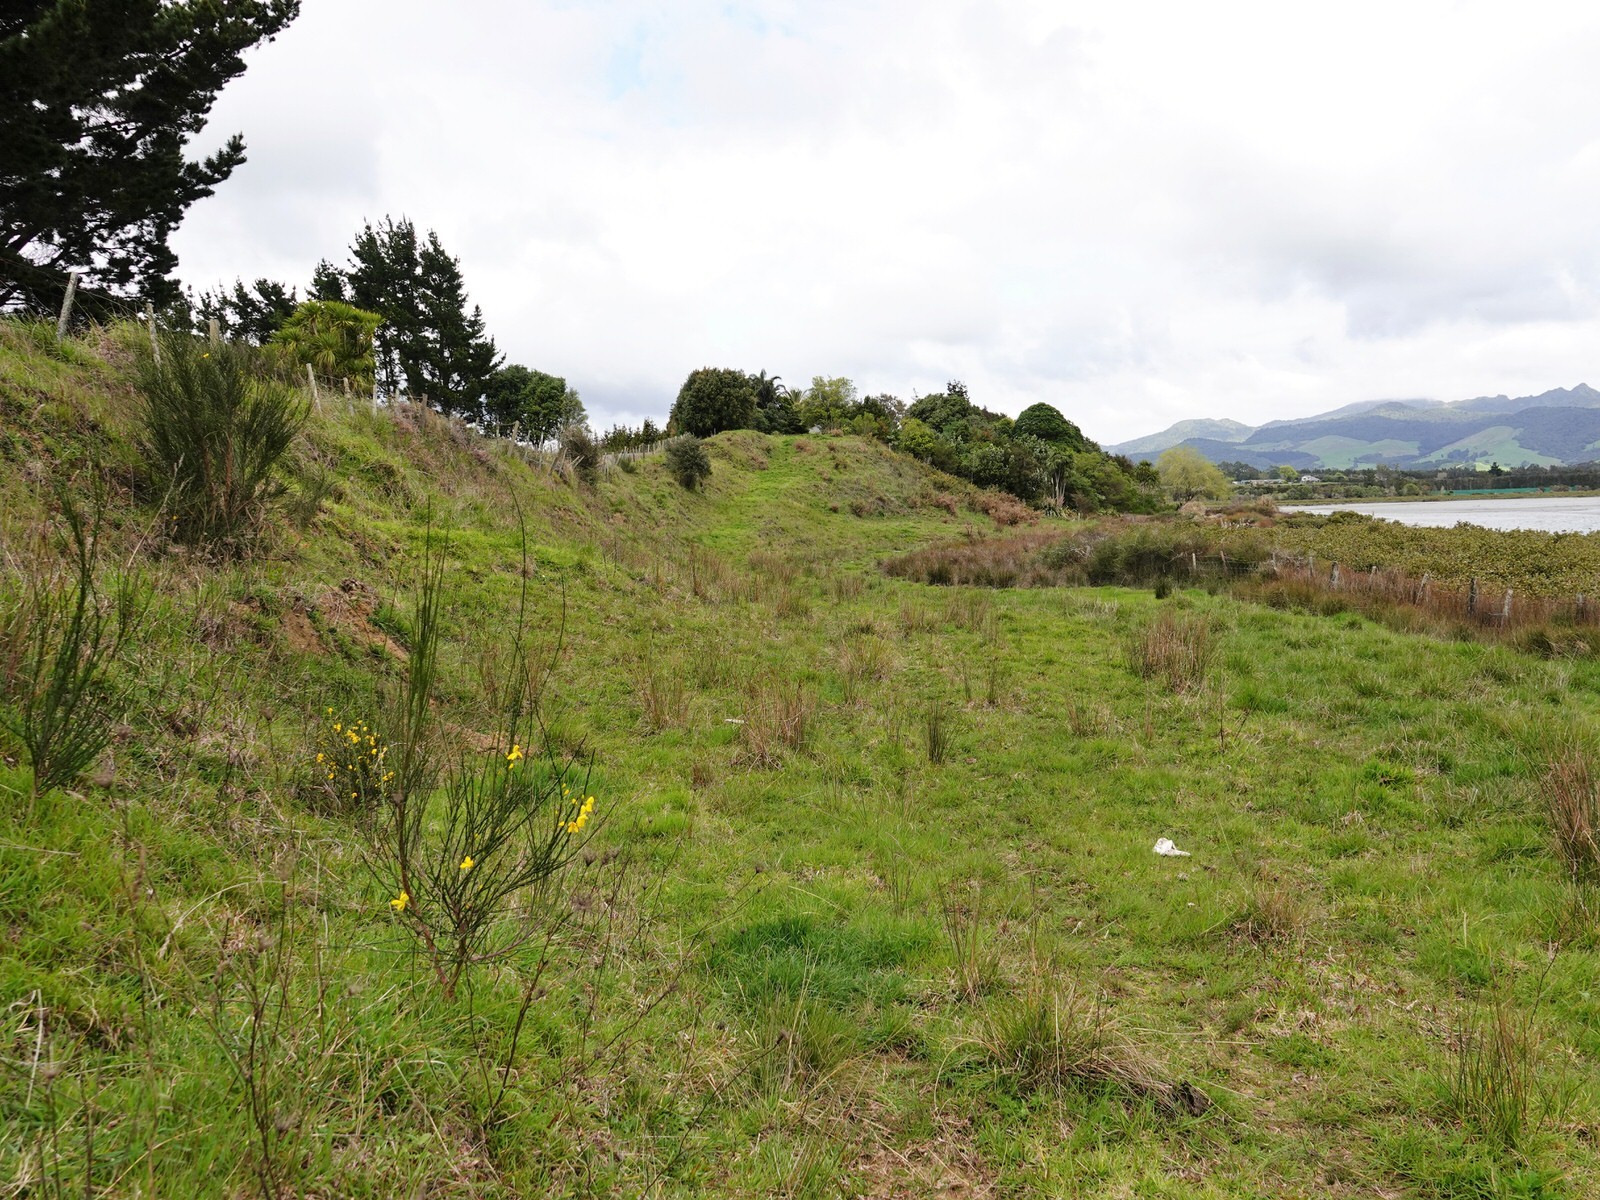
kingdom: Plantae
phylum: Tracheophyta
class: Magnoliopsida
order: Fabales
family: Fabaceae
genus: Cytisus
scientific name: Cytisus scoparius
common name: Scotch broom
